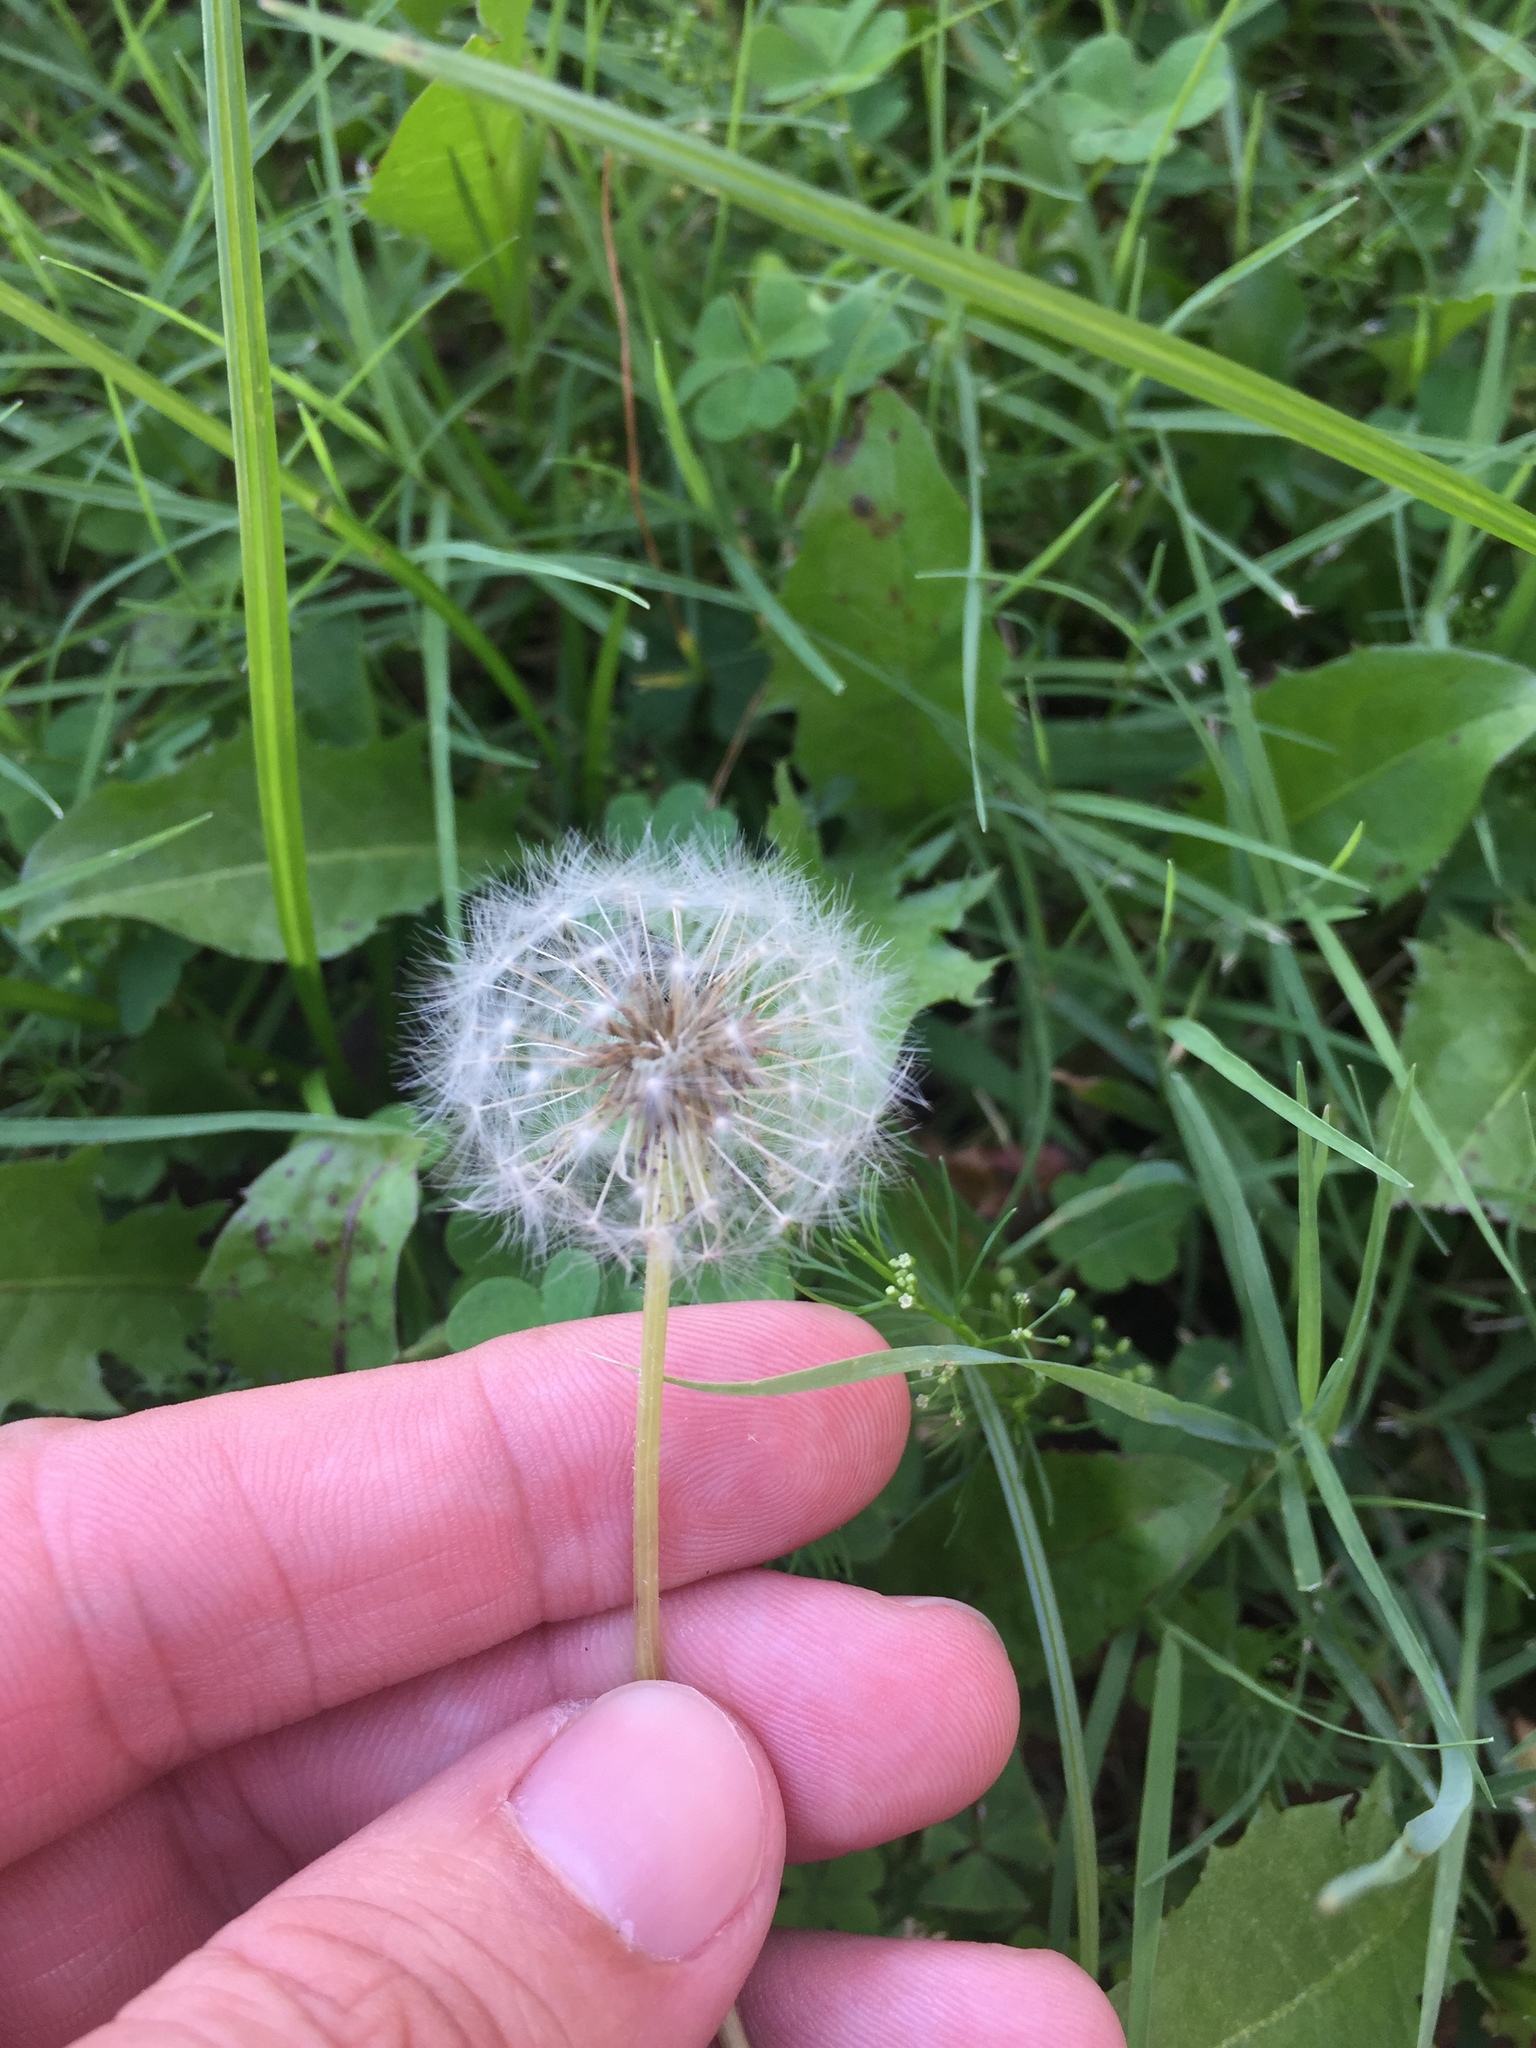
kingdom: Plantae
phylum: Tracheophyta
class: Magnoliopsida
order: Asterales
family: Asteraceae
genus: Taraxacum
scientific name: Taraxacum officinale
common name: Common dandelion
